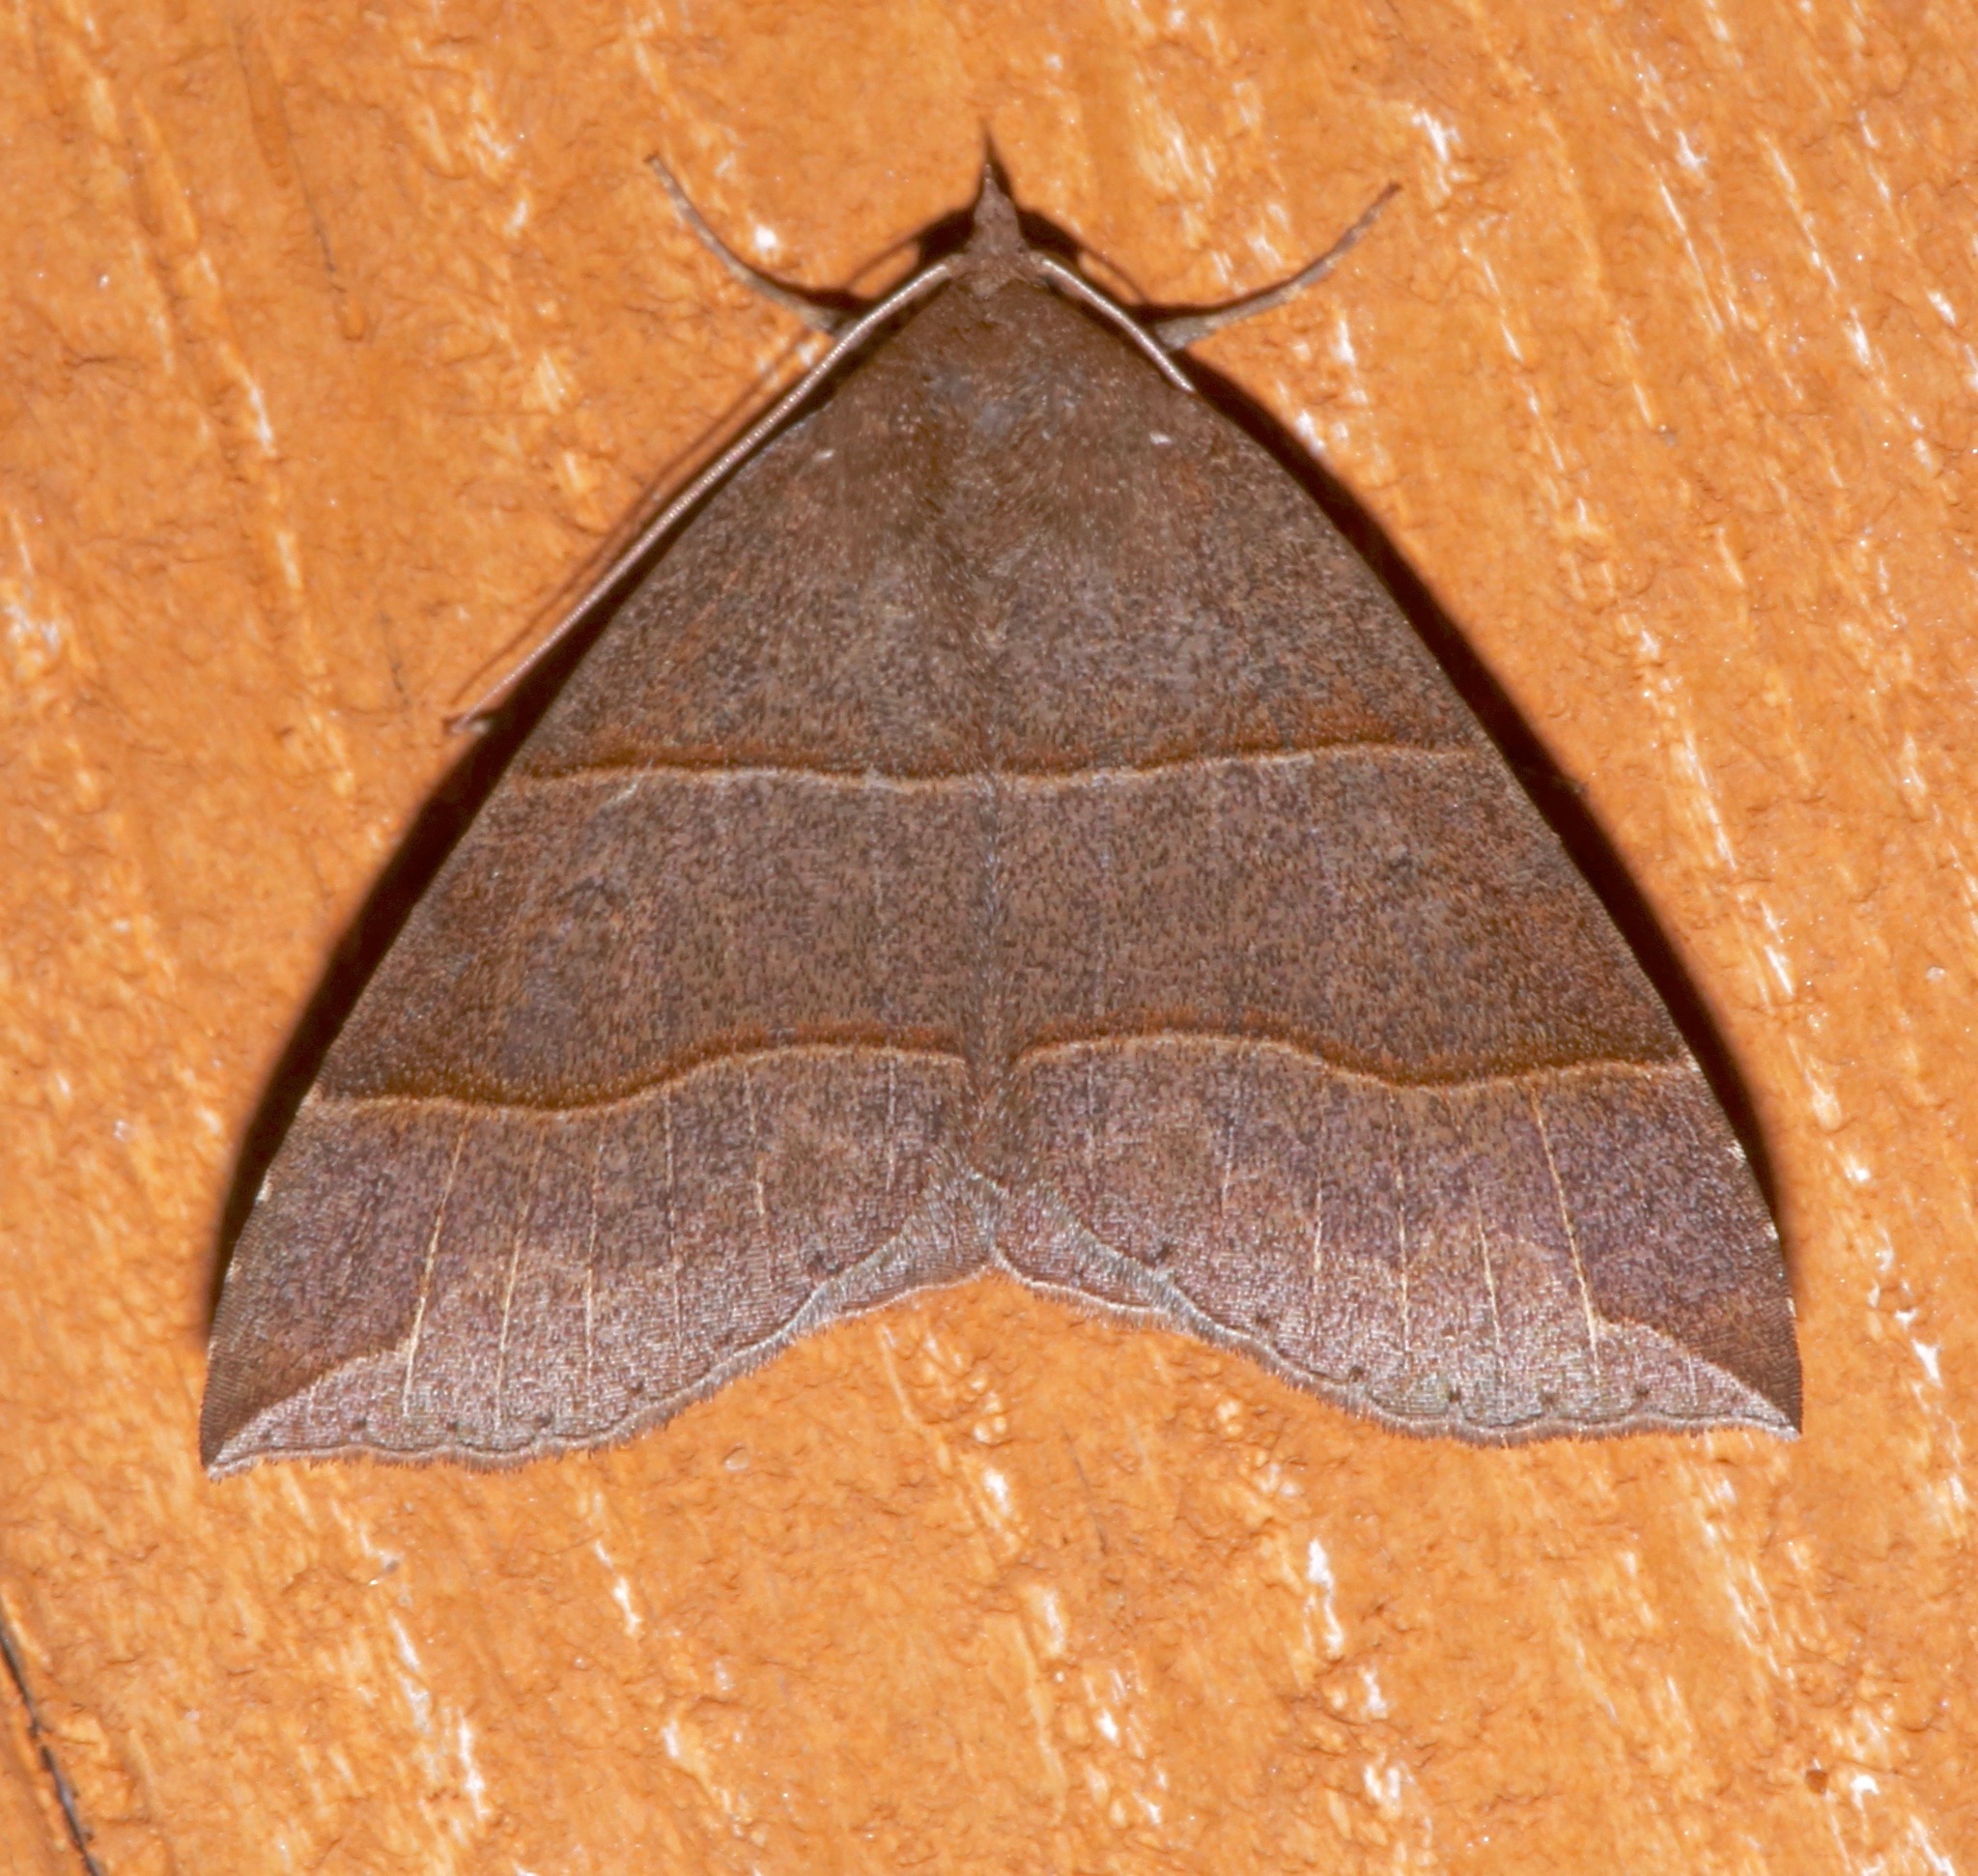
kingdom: Animalia
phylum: Arthropoda
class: Insecta
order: Lepidoptera
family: Erebidae
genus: Parallelia
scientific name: Parallelia bistriaris
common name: Maple looper moth
